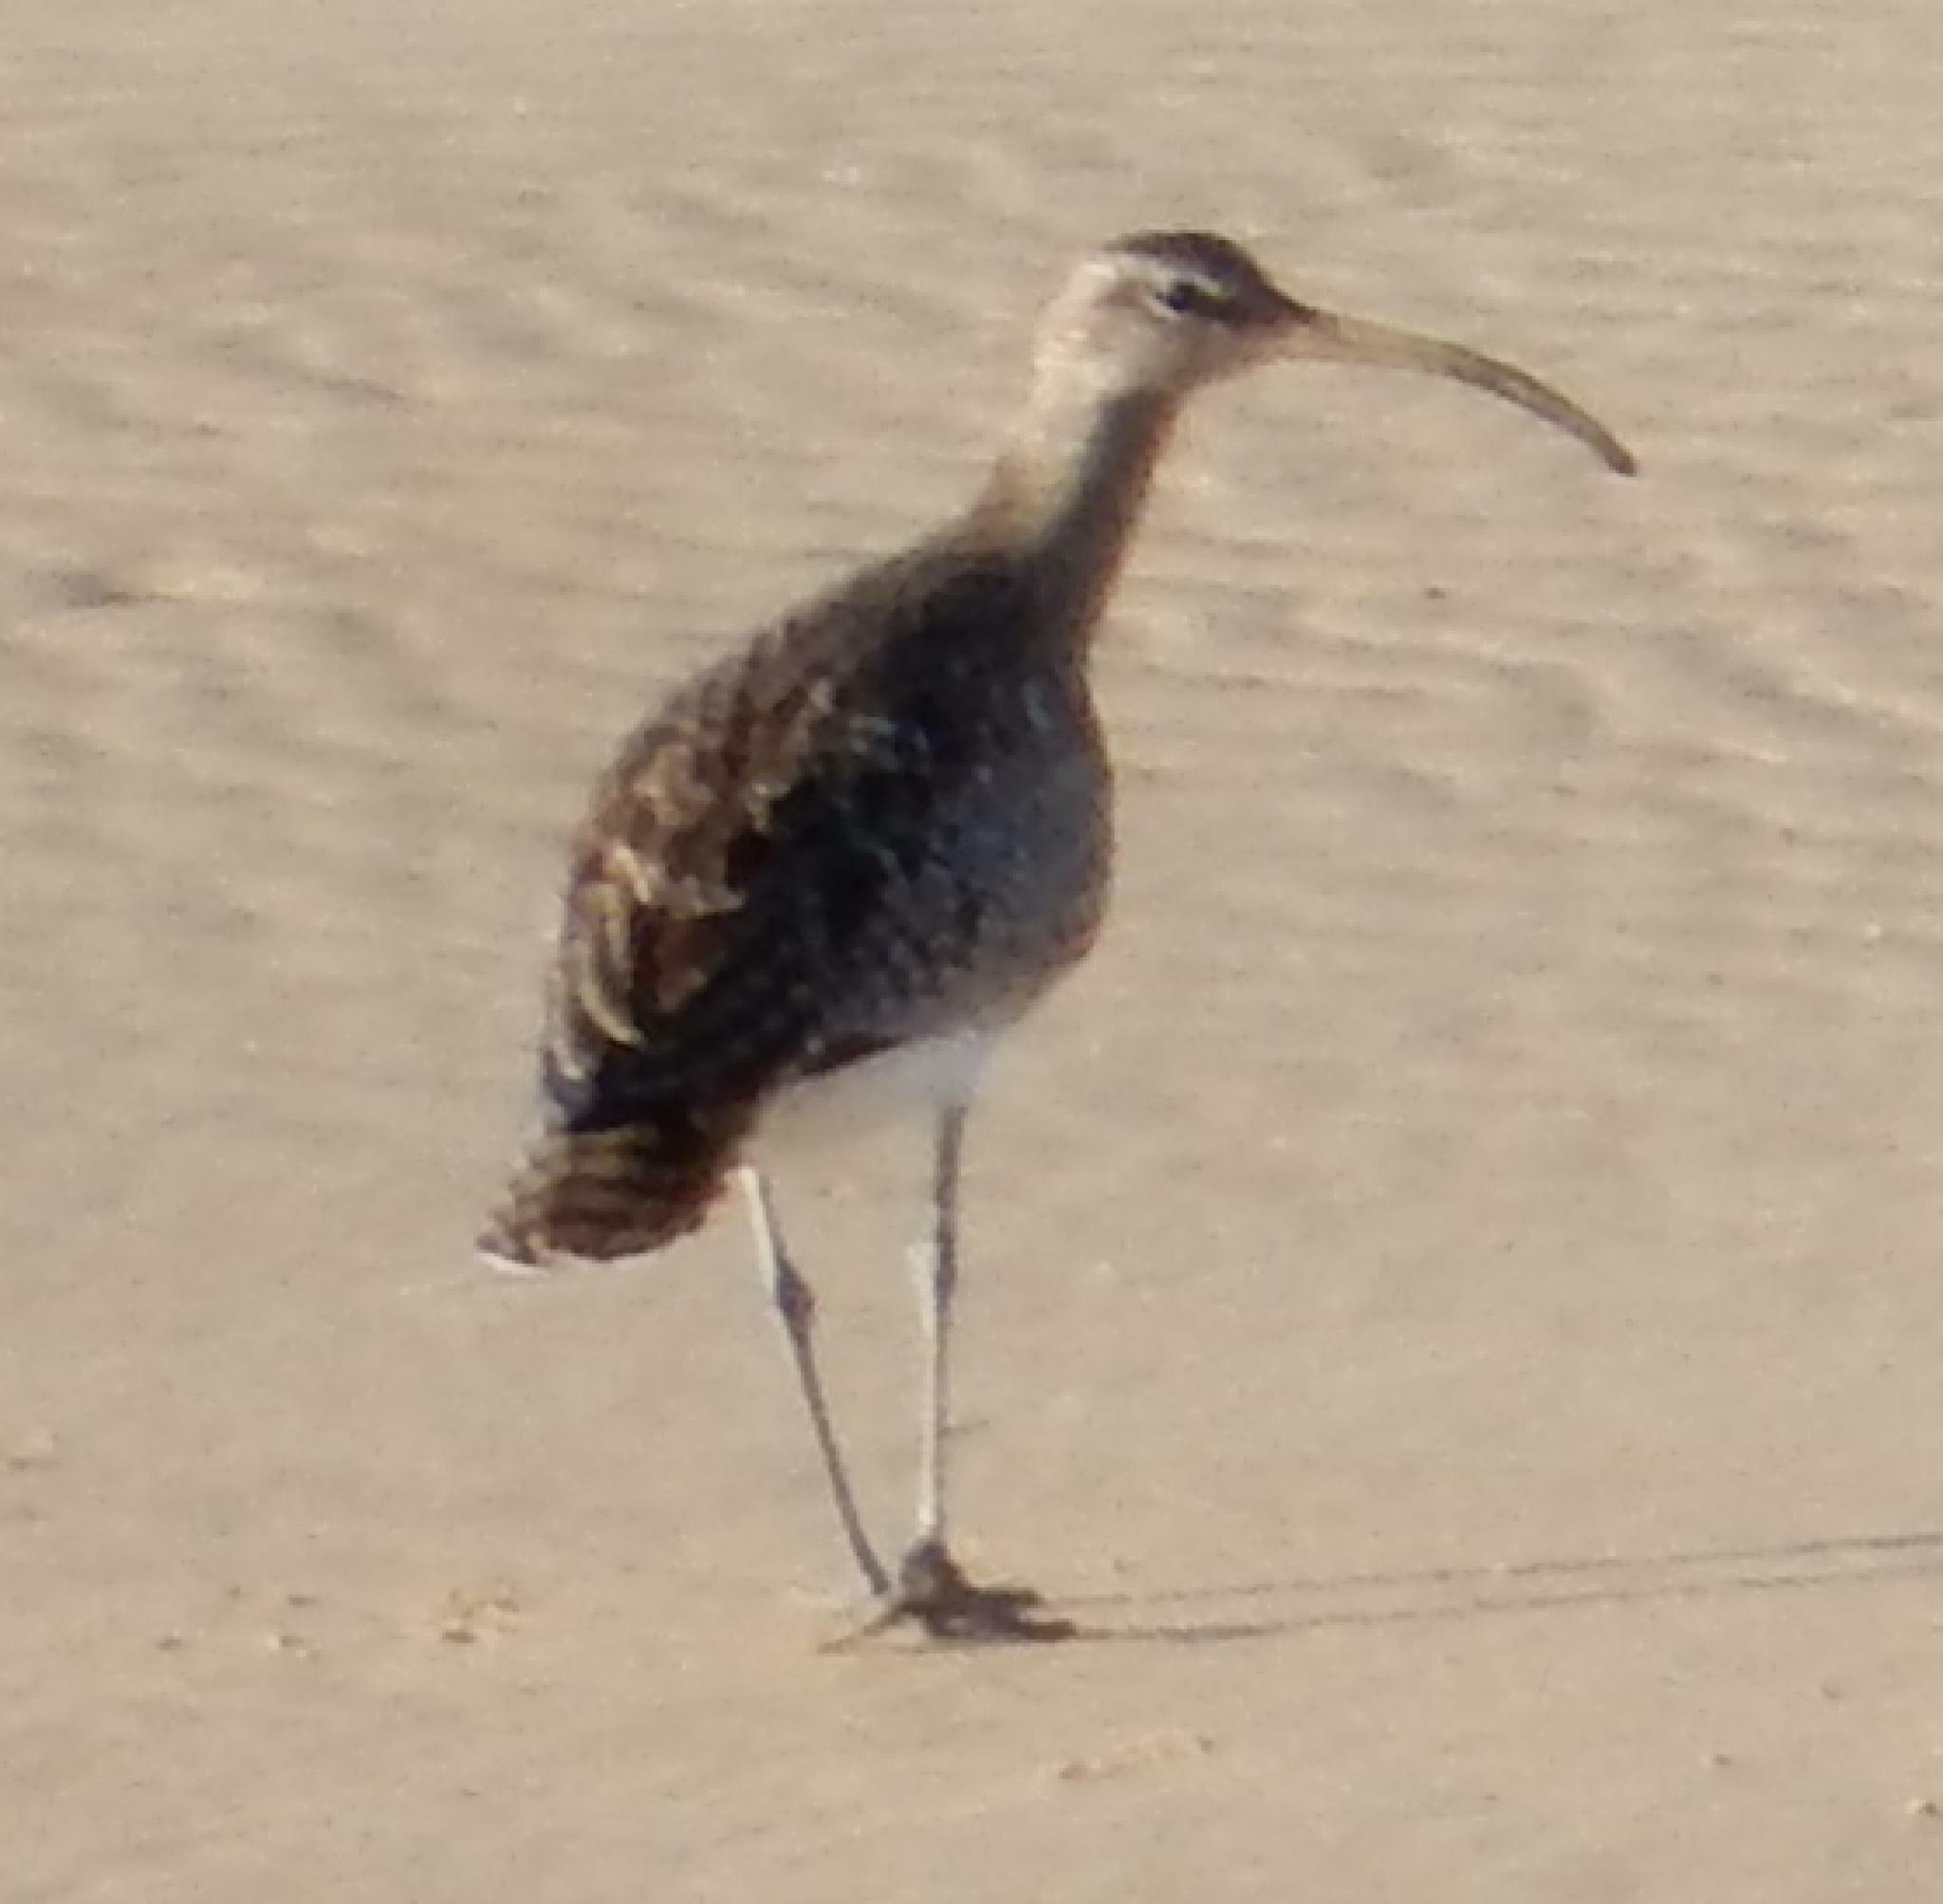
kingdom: Animalia
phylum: Chordata
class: Aves
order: Charadriiformes
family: Scolopacidae
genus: Numenius
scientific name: Numenius phaeopus
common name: Whimbrel
